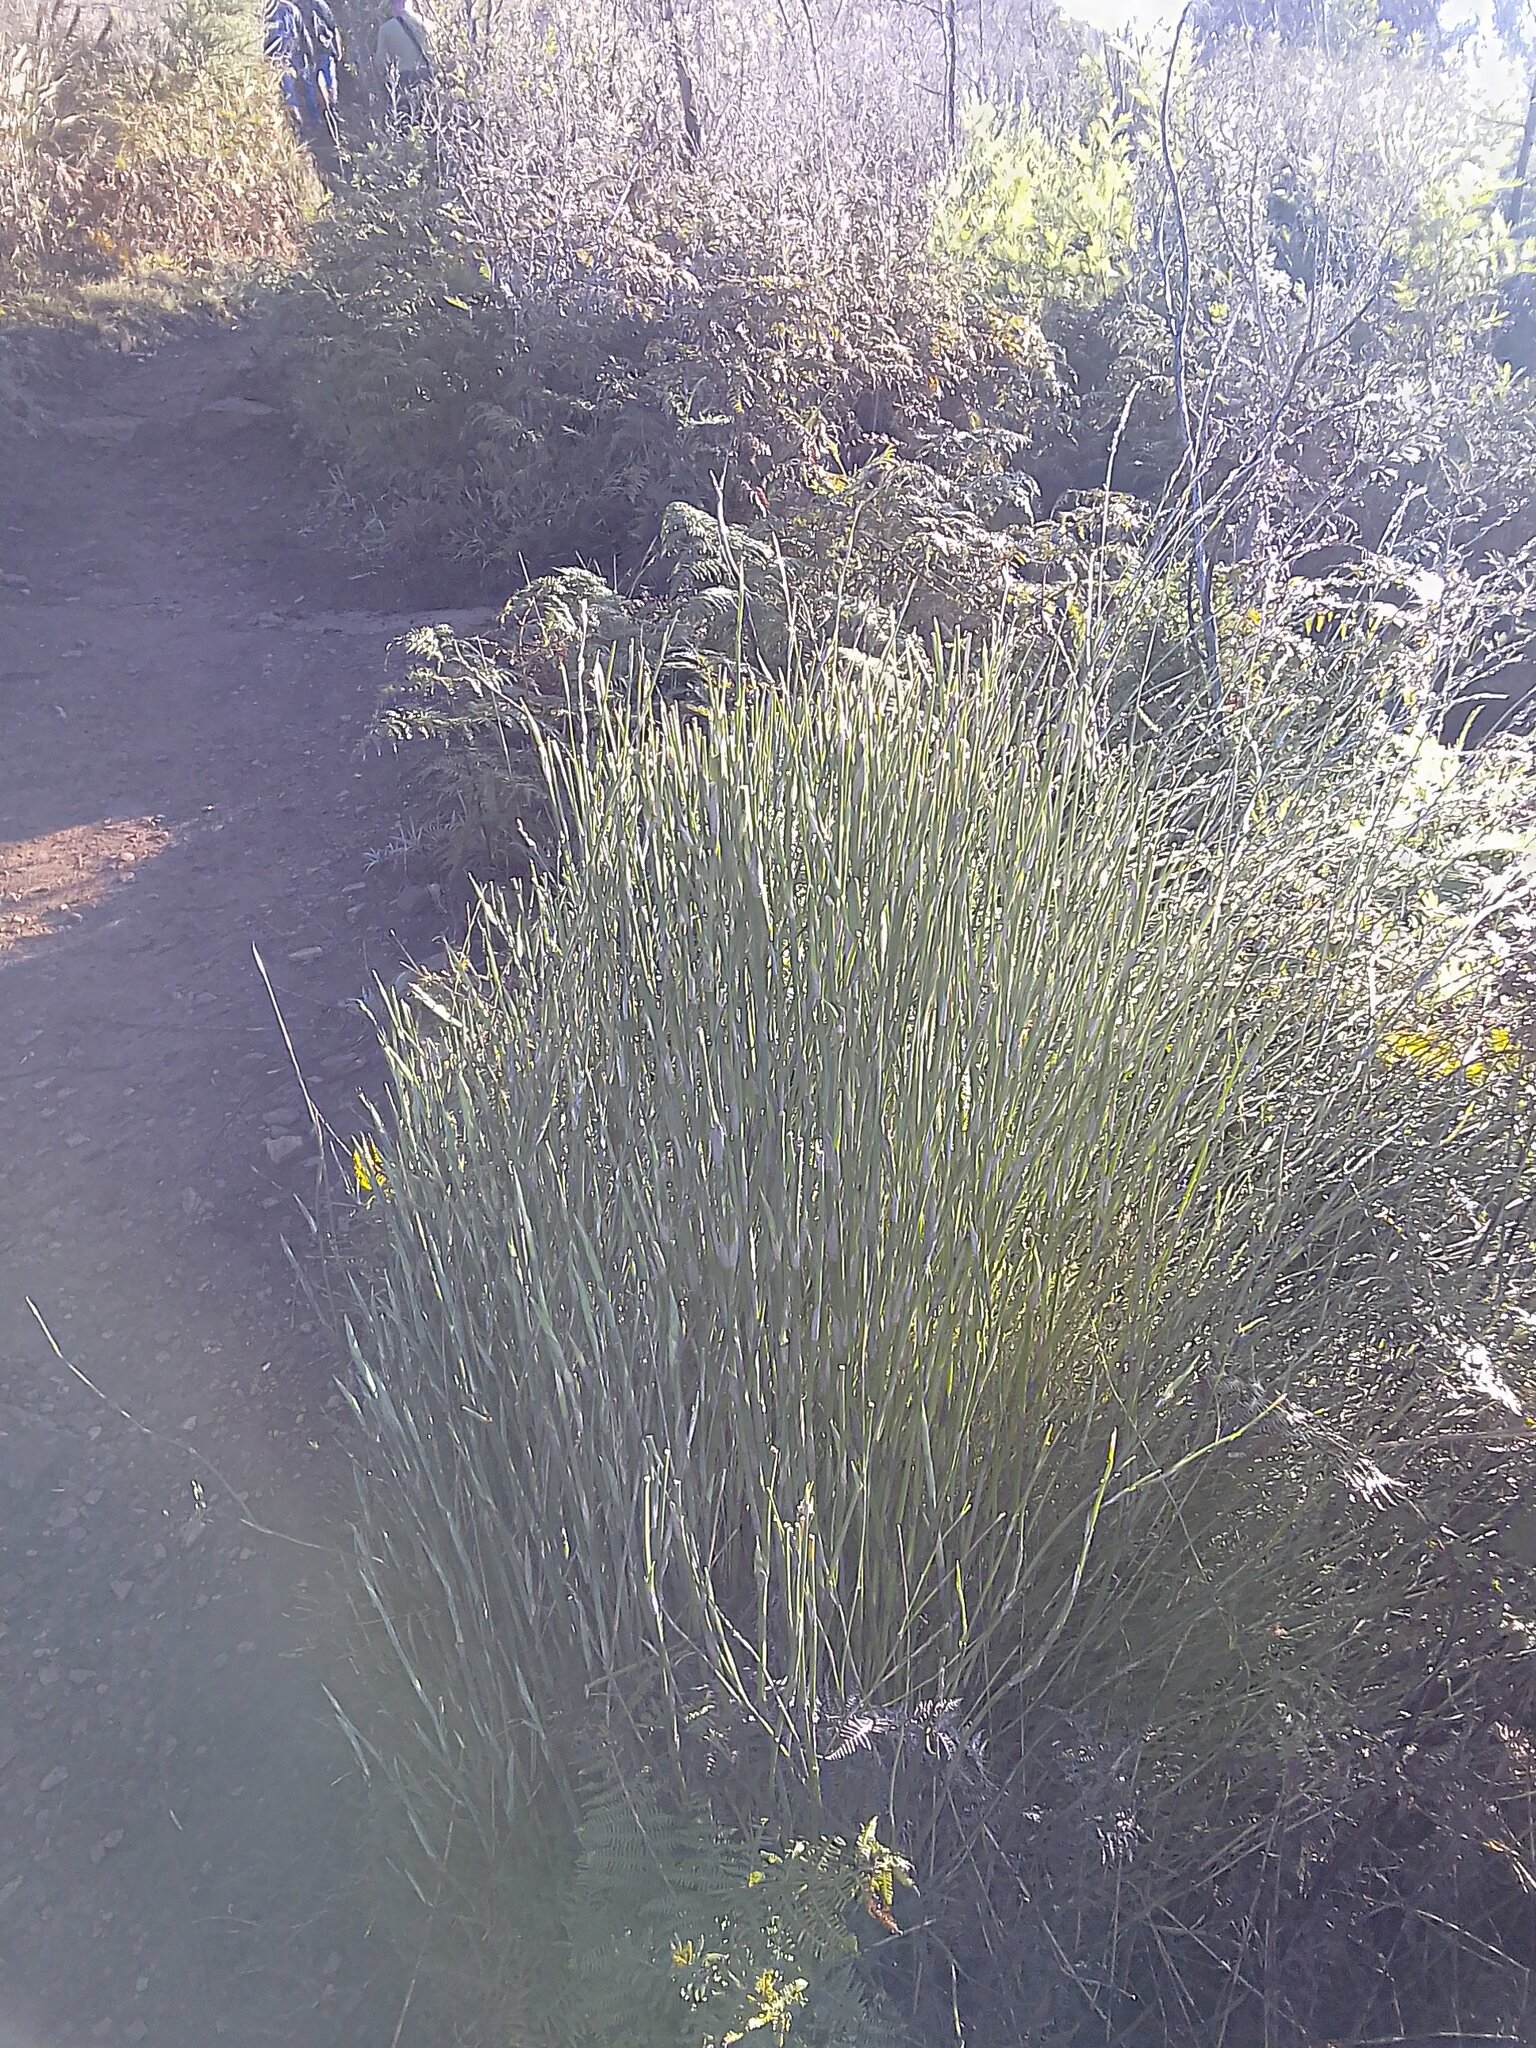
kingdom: Plantae
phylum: Tracheophyta
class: Liliopsida
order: Poales
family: Restionaceae
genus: Restio
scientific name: Restio quadratus
